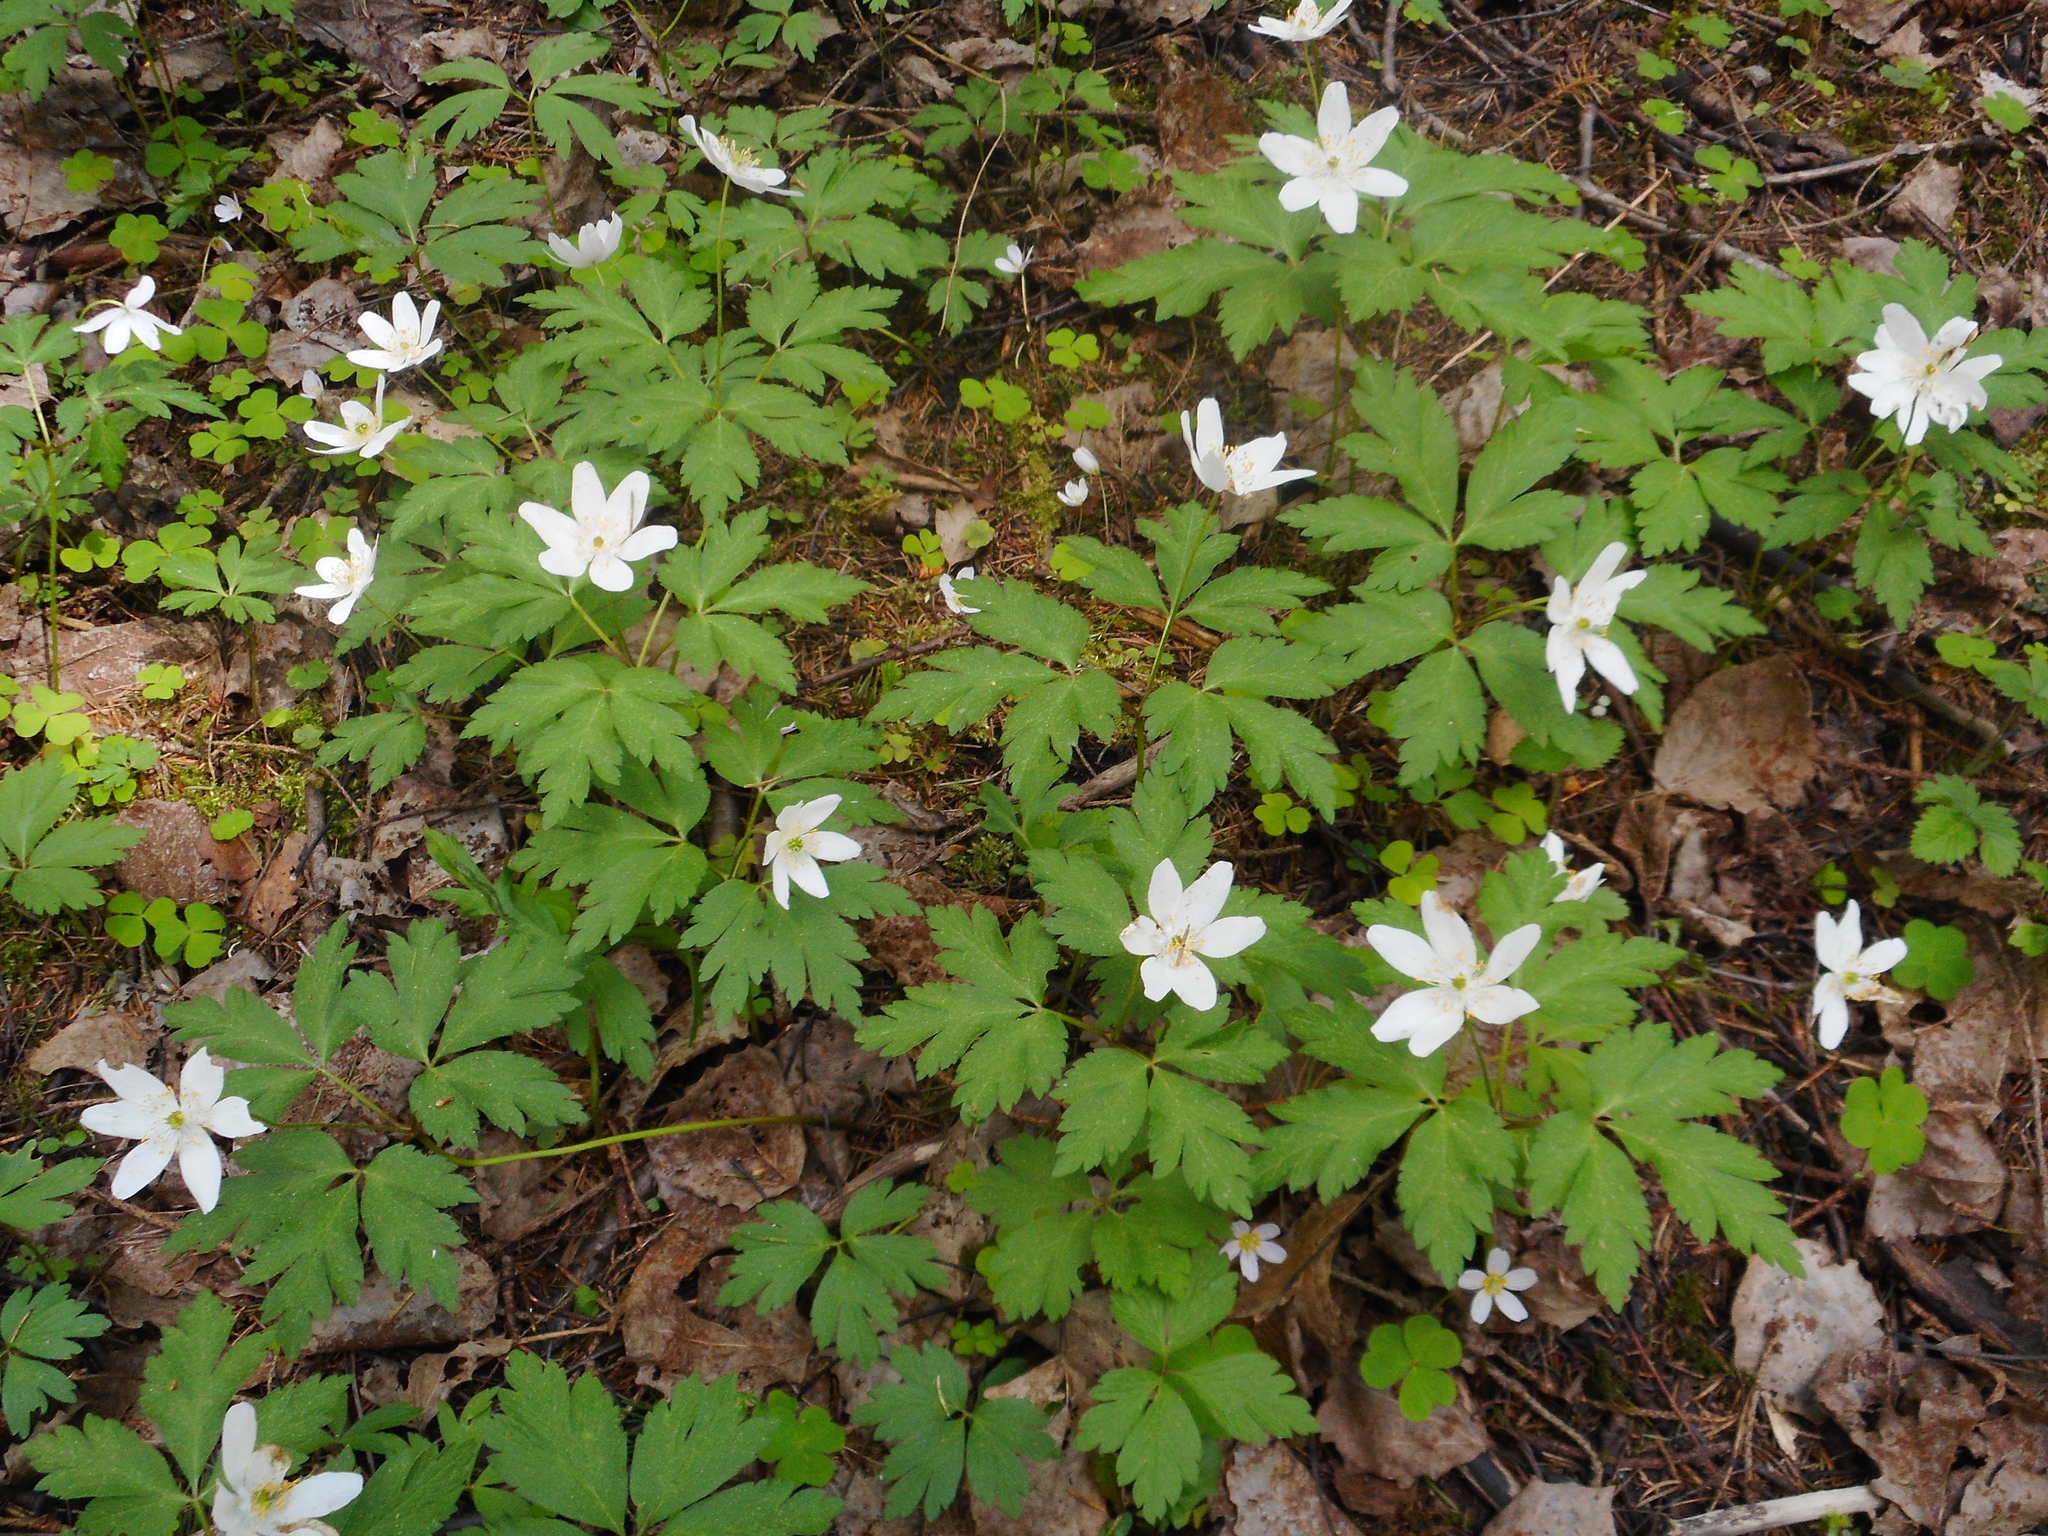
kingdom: Plantae
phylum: Tracheophyta
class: Magnoliopsida
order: Ranunculales
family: Ranunculaceae
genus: Anemone
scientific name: Anemone nemorosa
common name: Wood anemone
